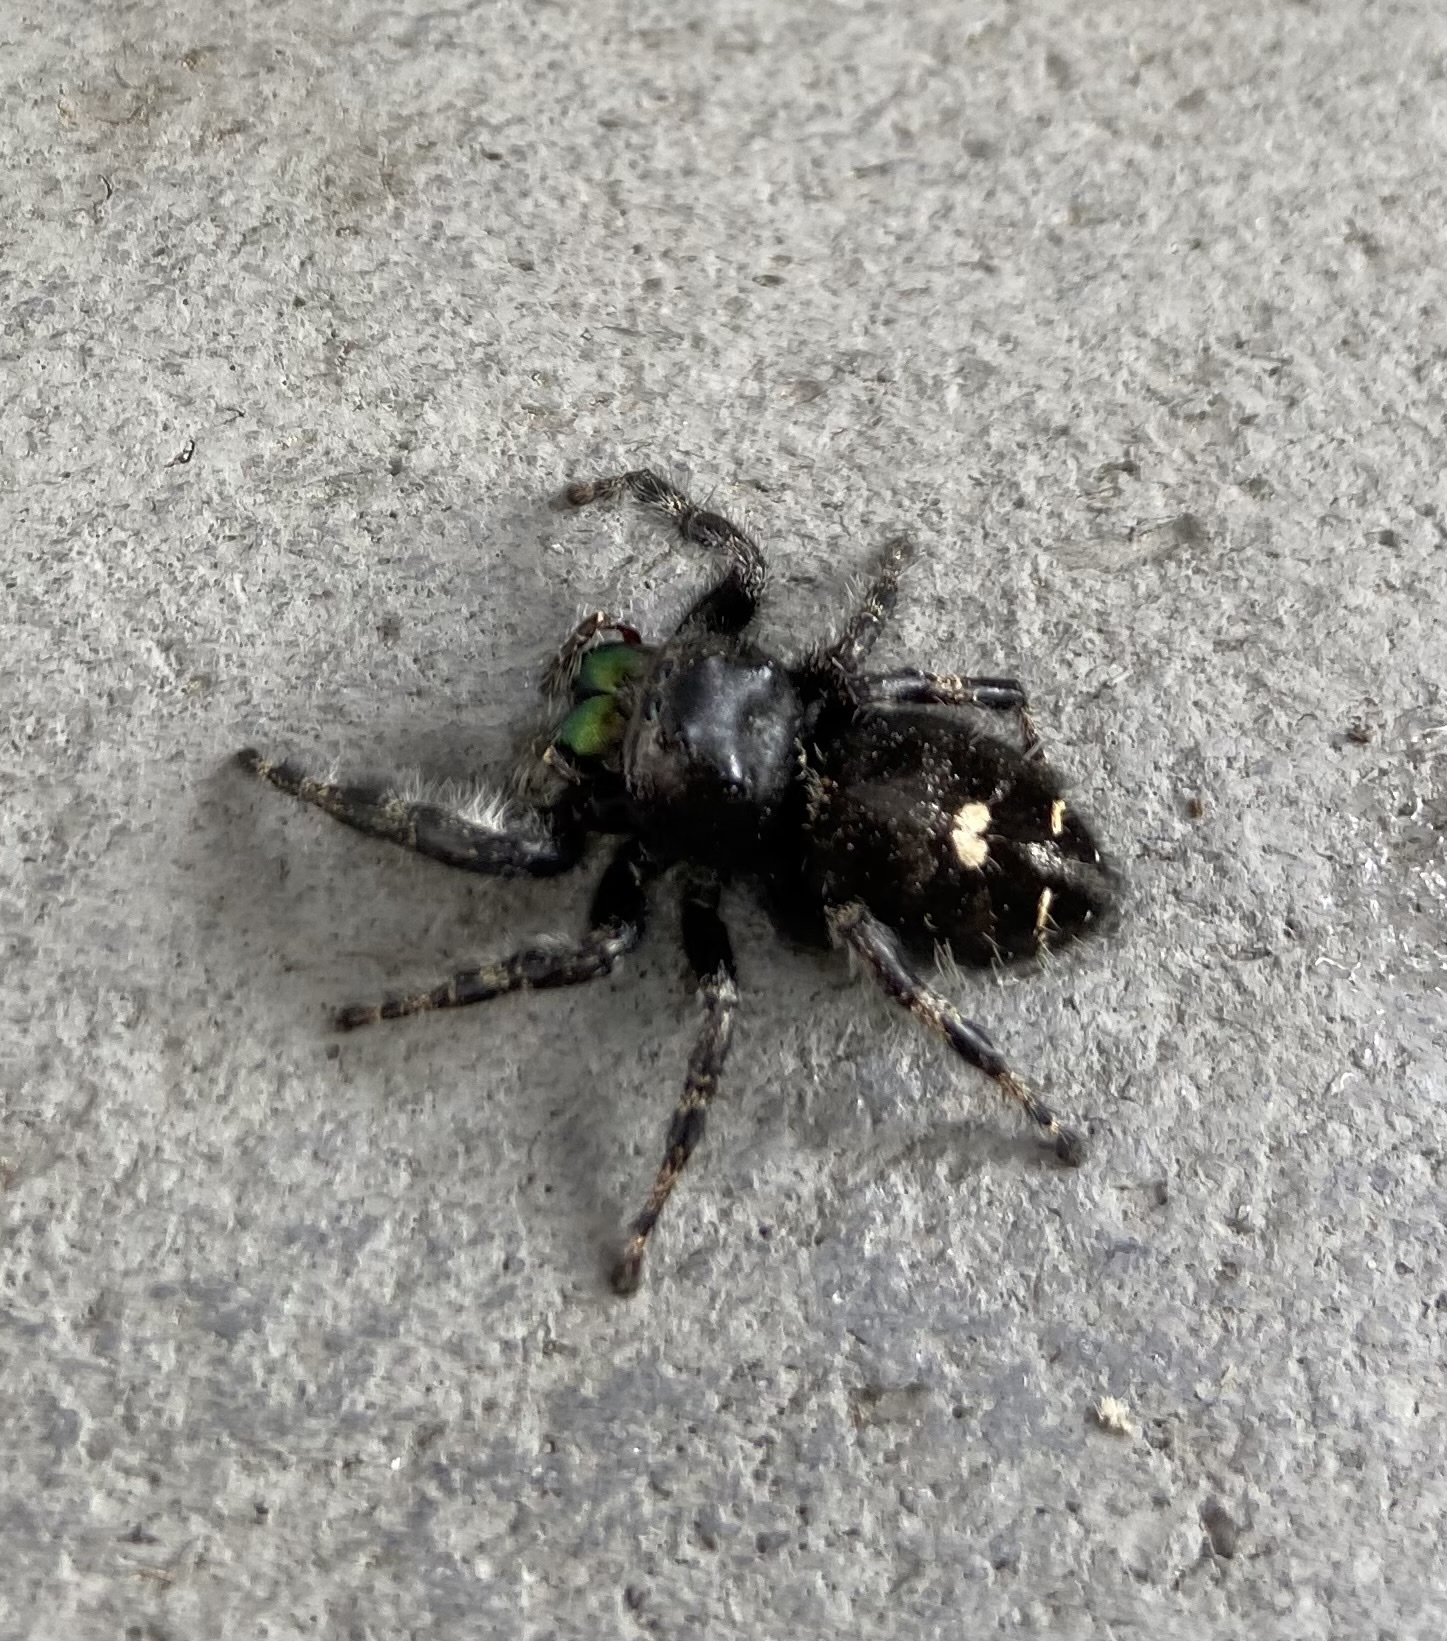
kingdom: Animalia
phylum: Arthropoda
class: Arachnida
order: Araneae
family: Salticidae
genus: Phidippus
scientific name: Phidippus audax
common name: Bold jumper
